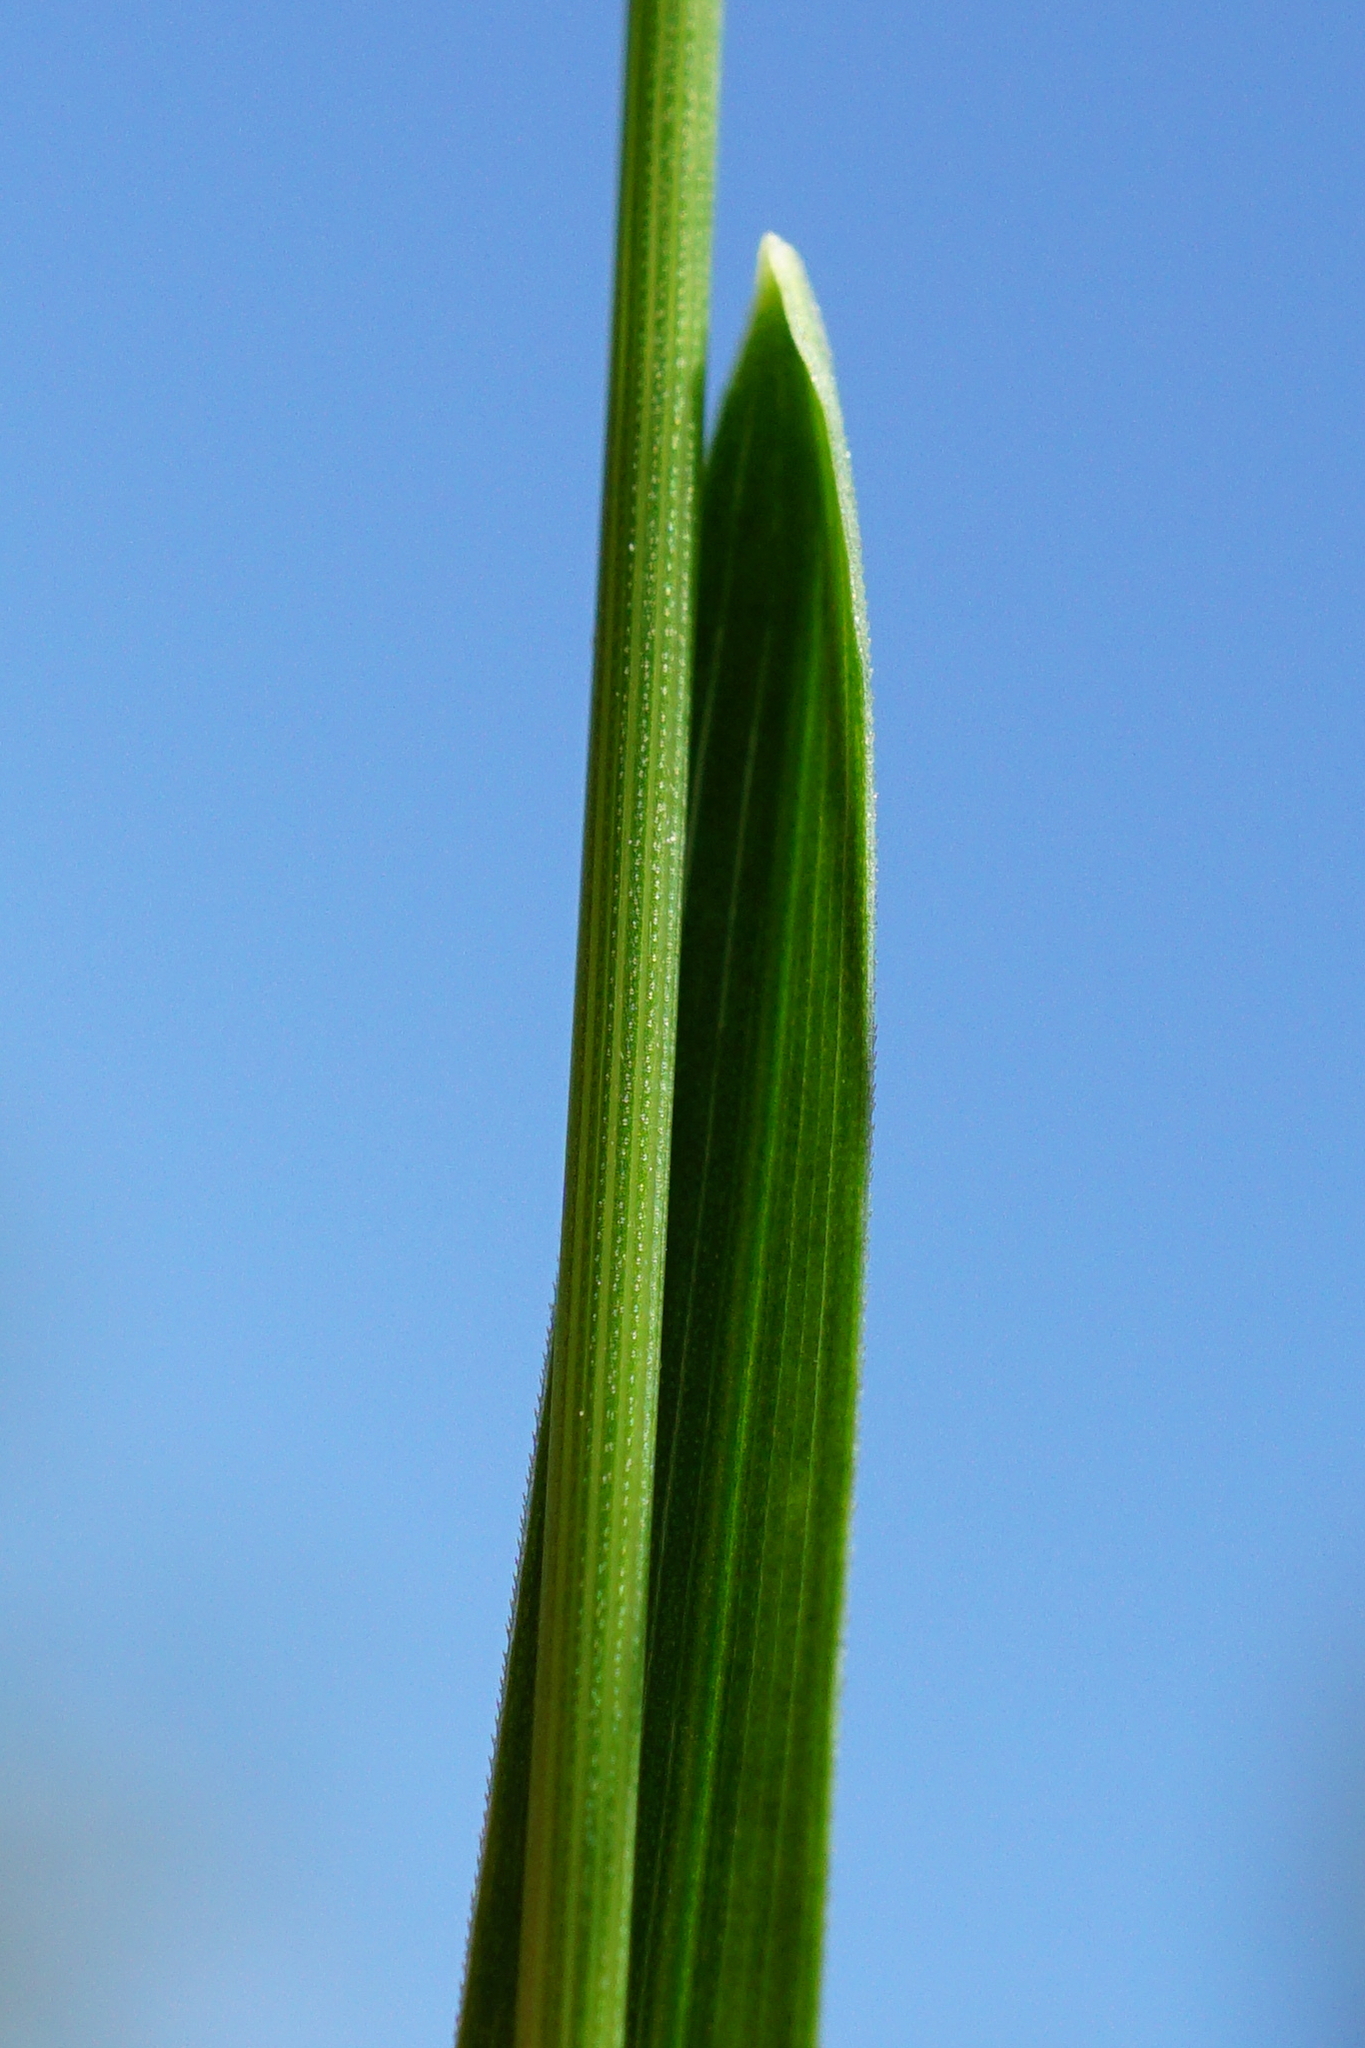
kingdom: Plantae
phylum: Tracheophyta
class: Liliopsida
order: Poales
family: Poaceae
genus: Poa
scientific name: Poa trivialis
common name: Rough bluegrass
